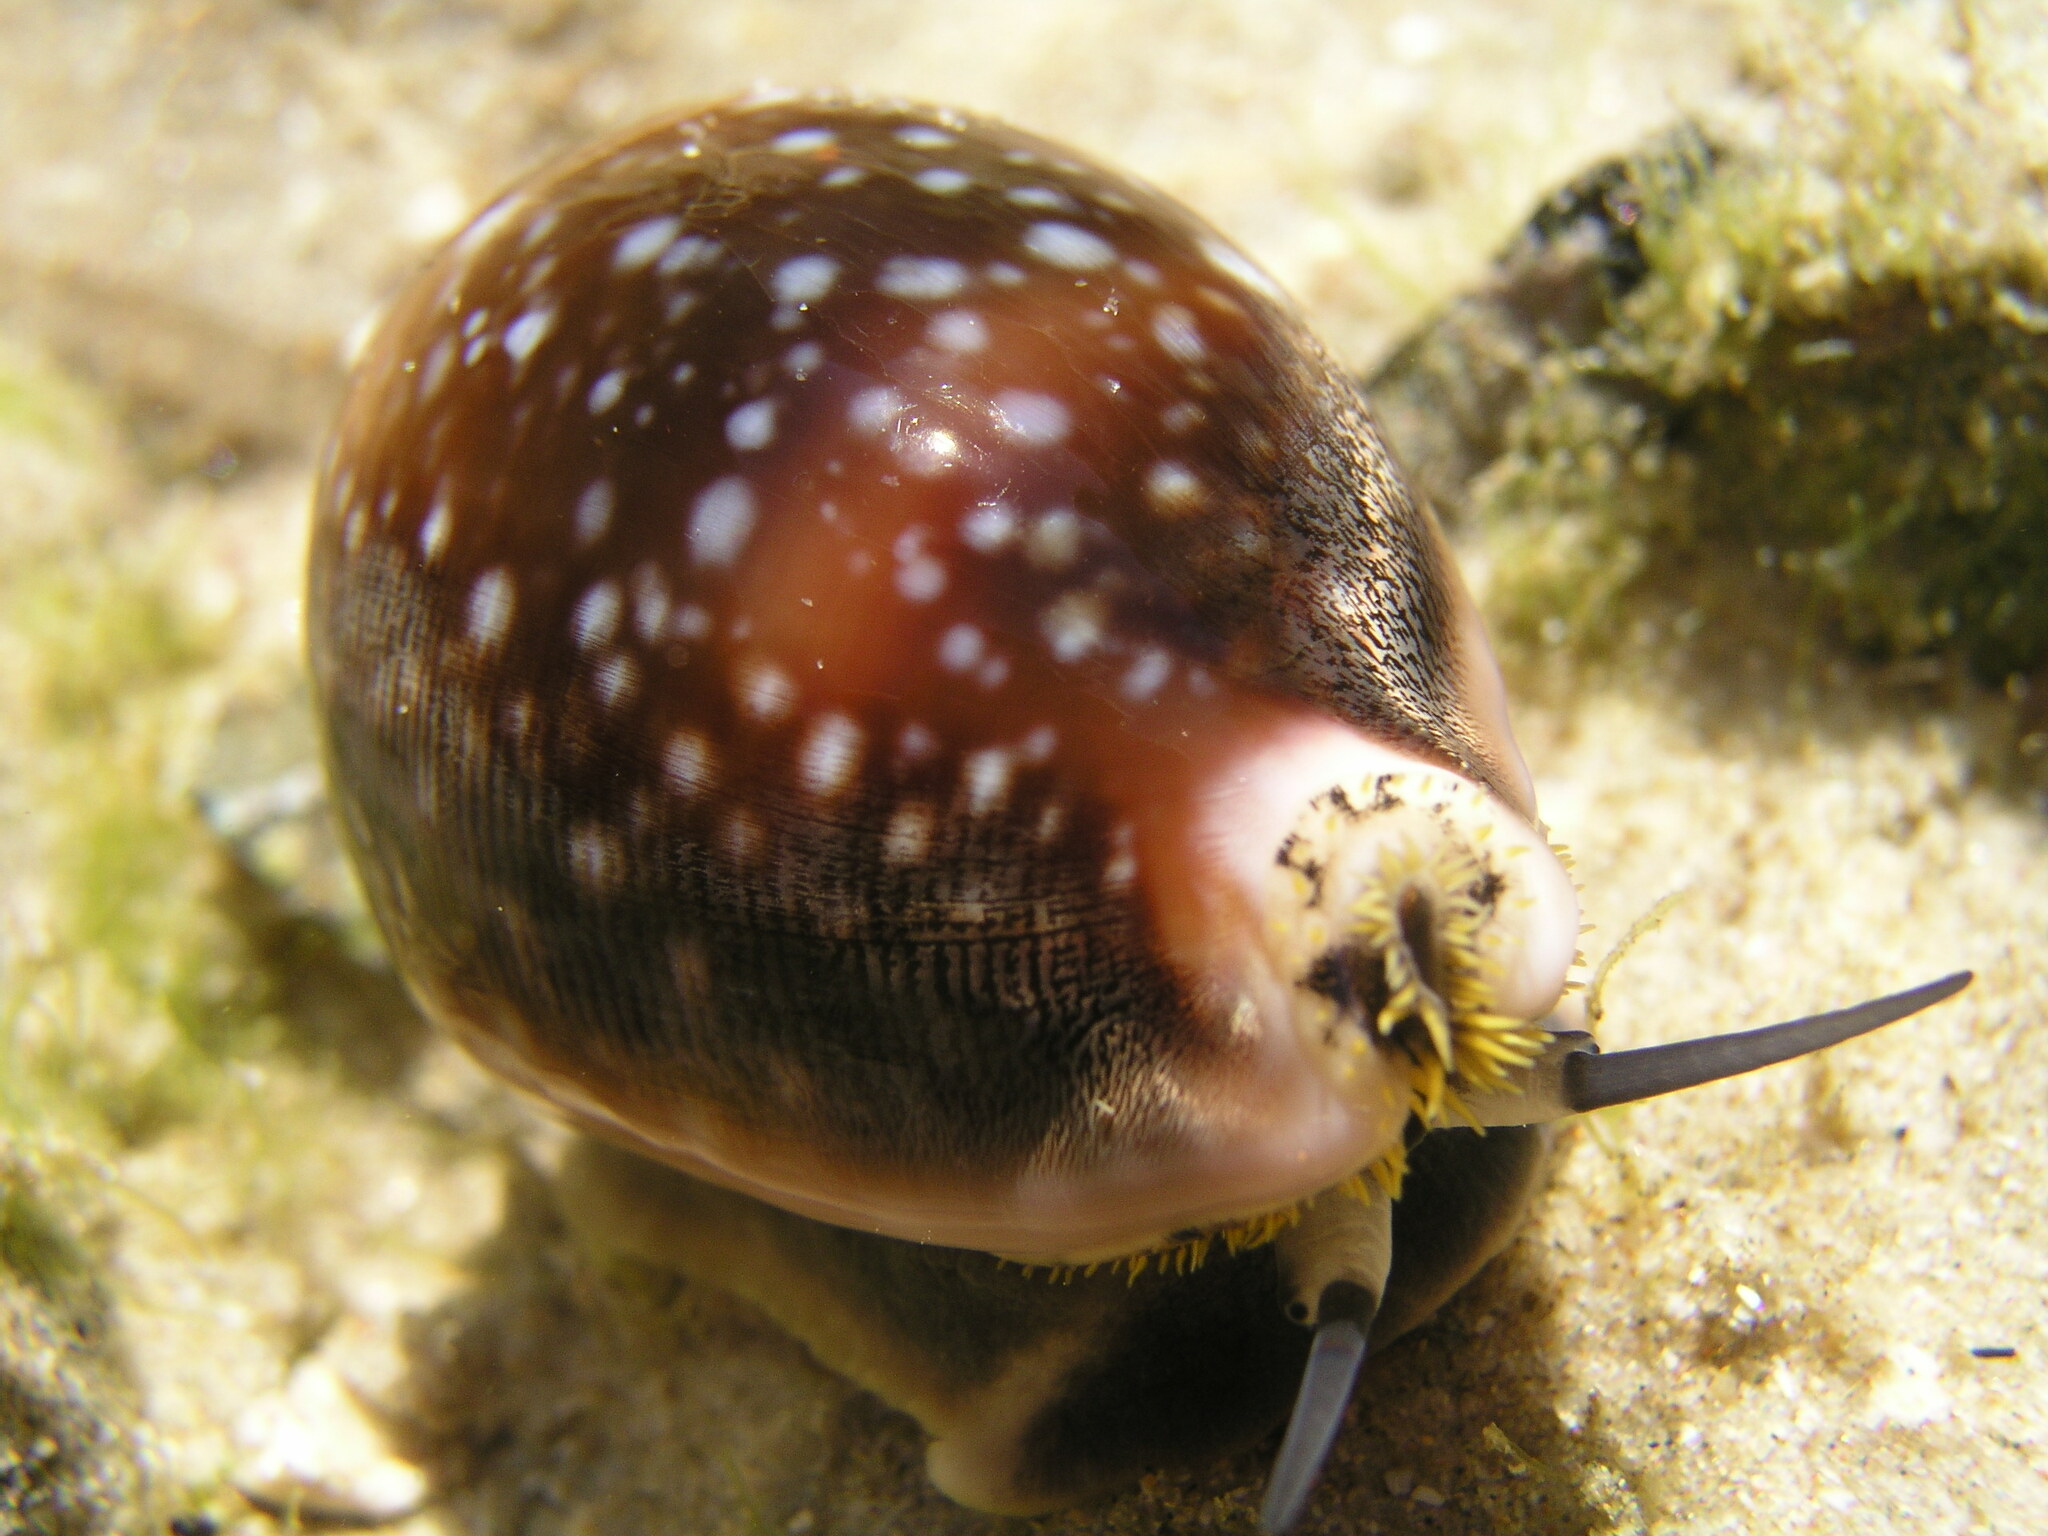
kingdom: Animalia
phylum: Mollusca
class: Gastropoda
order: Littorinimorpha
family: Cypraeidae
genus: Lyncina
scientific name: Lyncina vitellus
